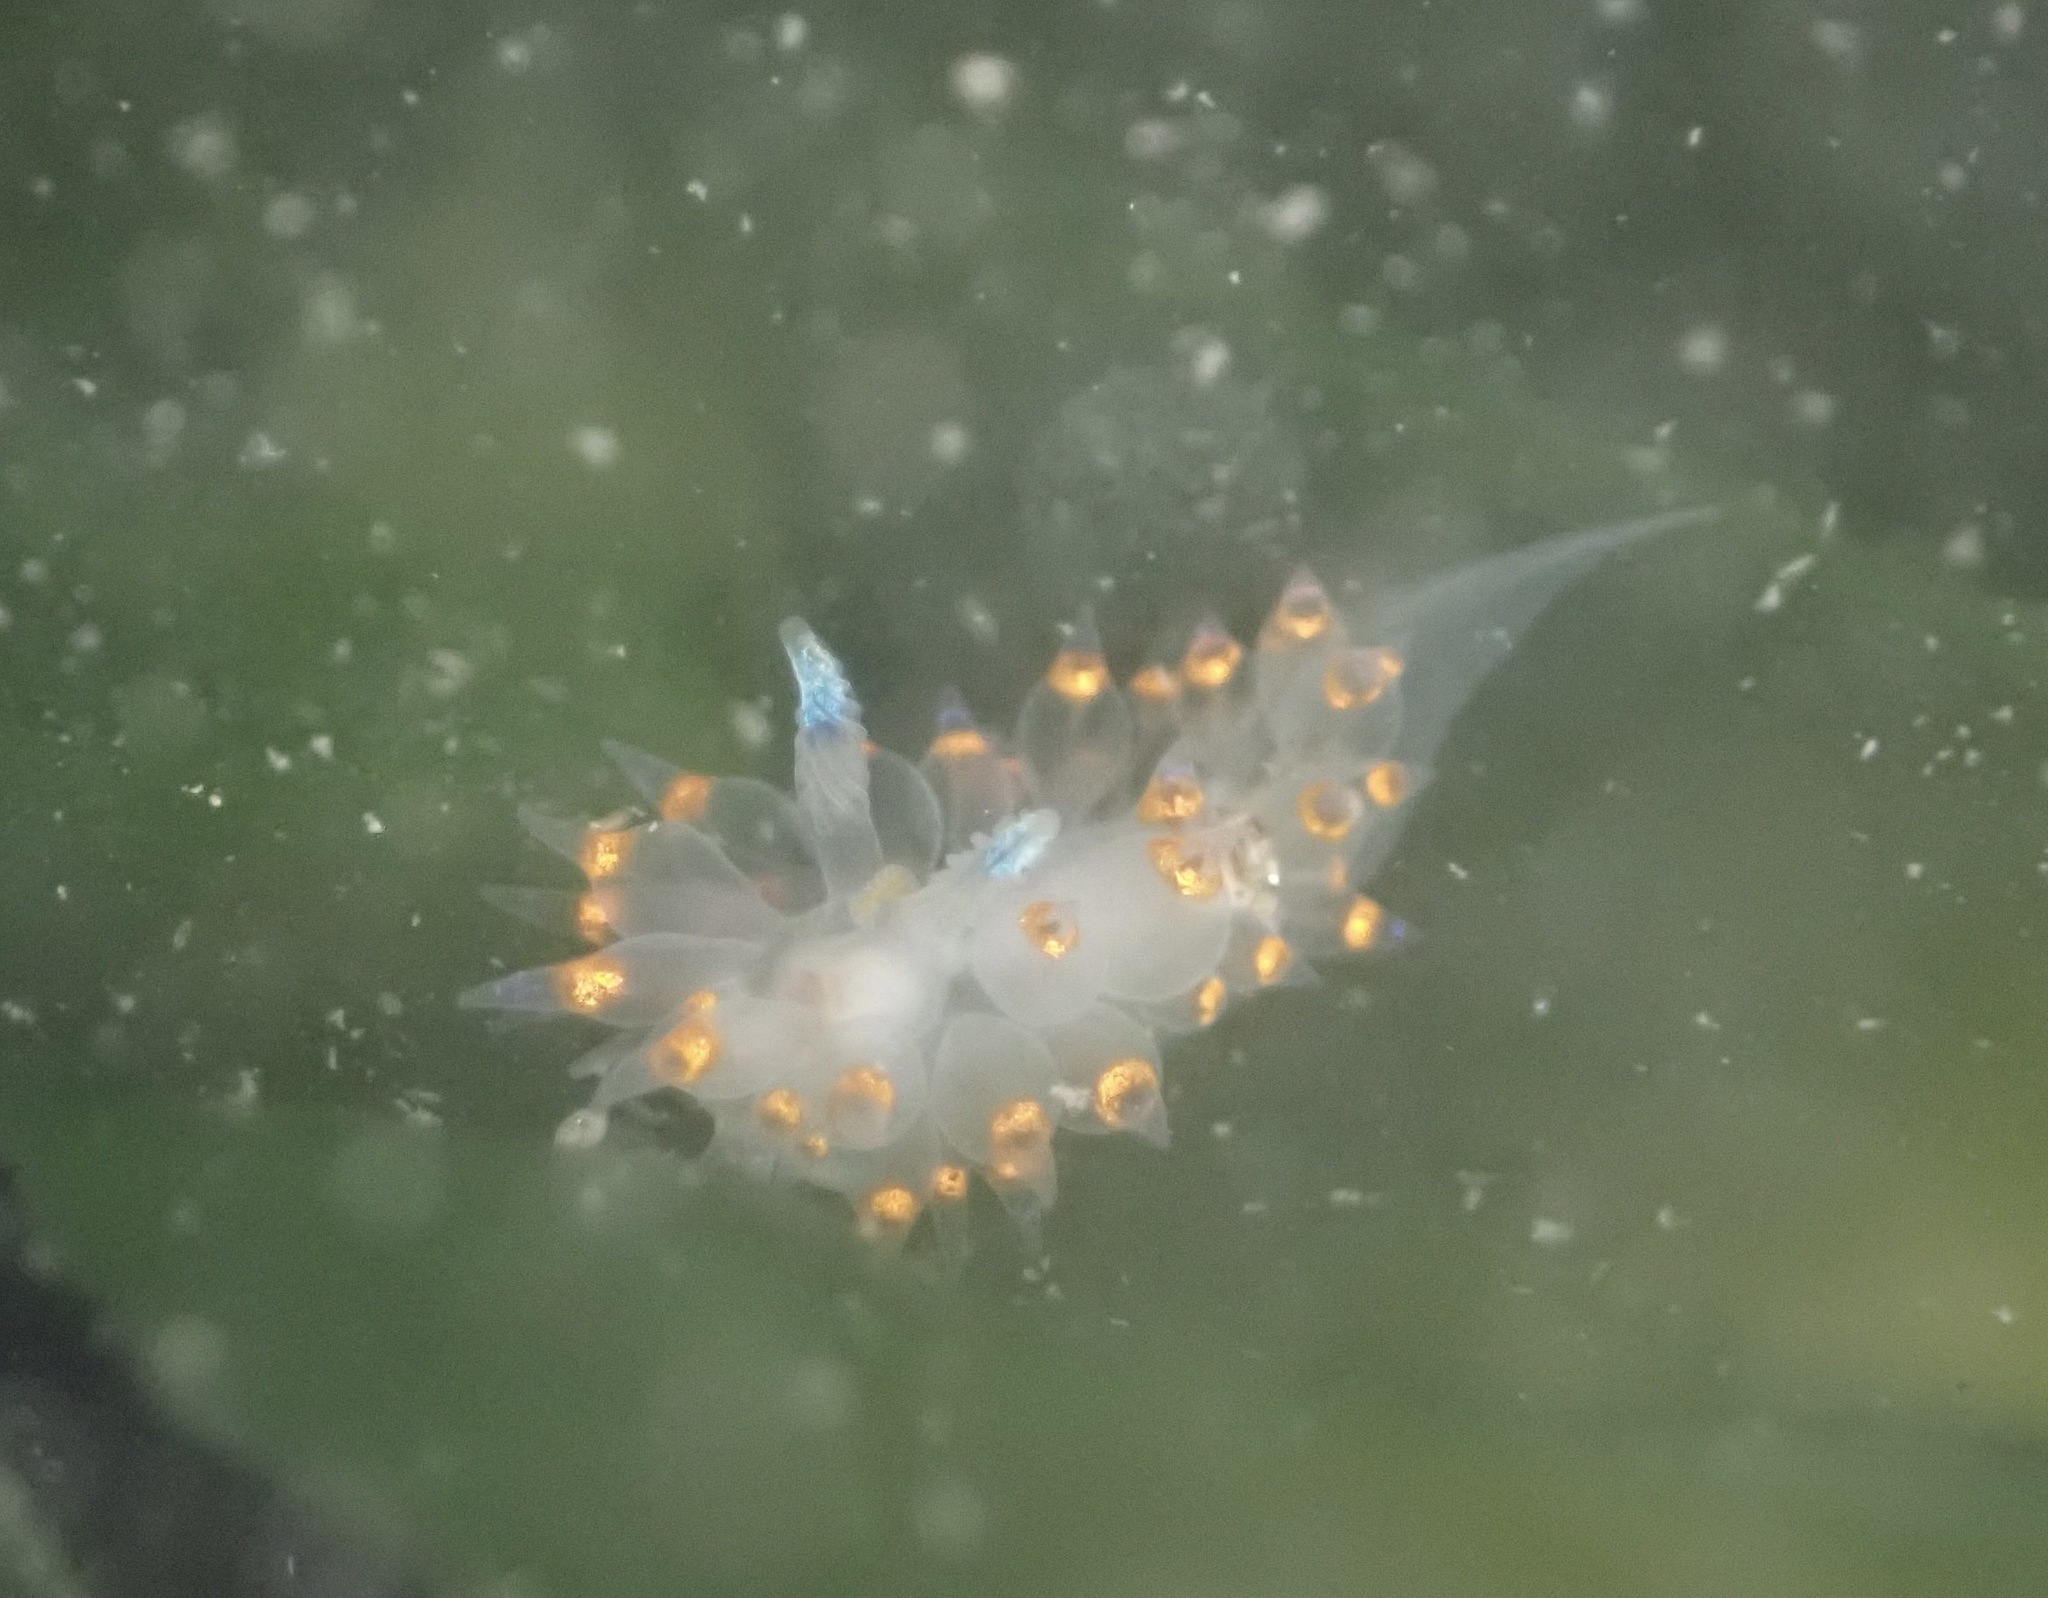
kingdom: Animalia
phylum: Mollusca
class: Gastropoda
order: Nudibranchia
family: Janolidae
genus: Antiopella
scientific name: Antiopella barbarensis
